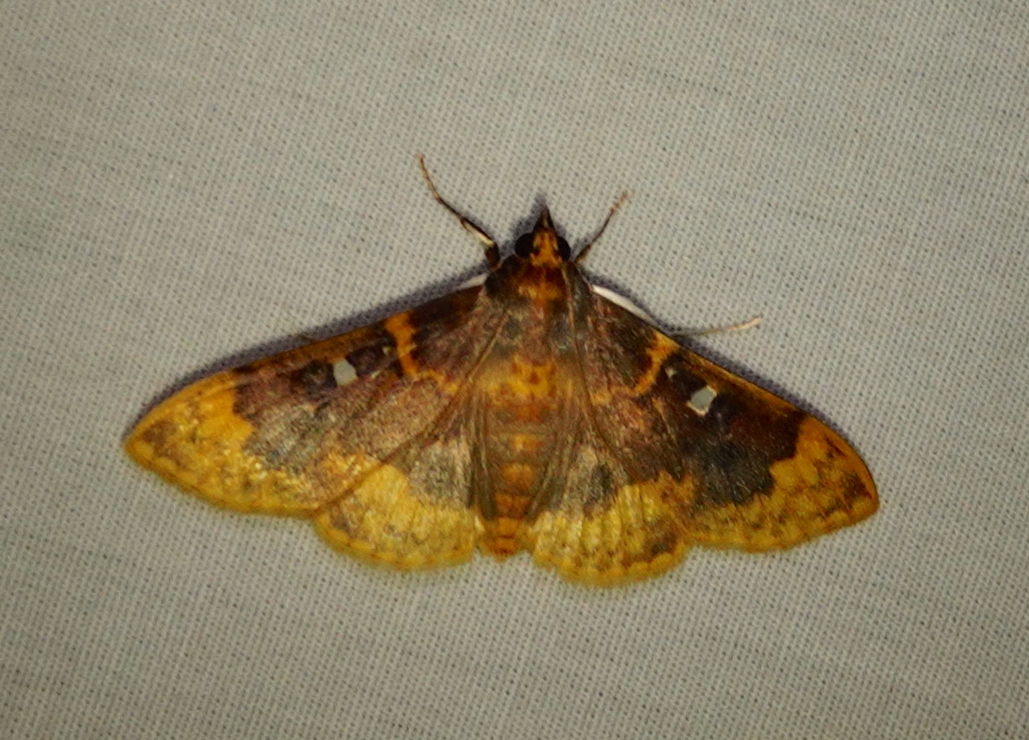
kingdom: Animalia
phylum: Arthropoda
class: Insecta
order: Lepidoptera
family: Crambidae
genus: Polygrammodes
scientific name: Polygrammodes multifenestrata
